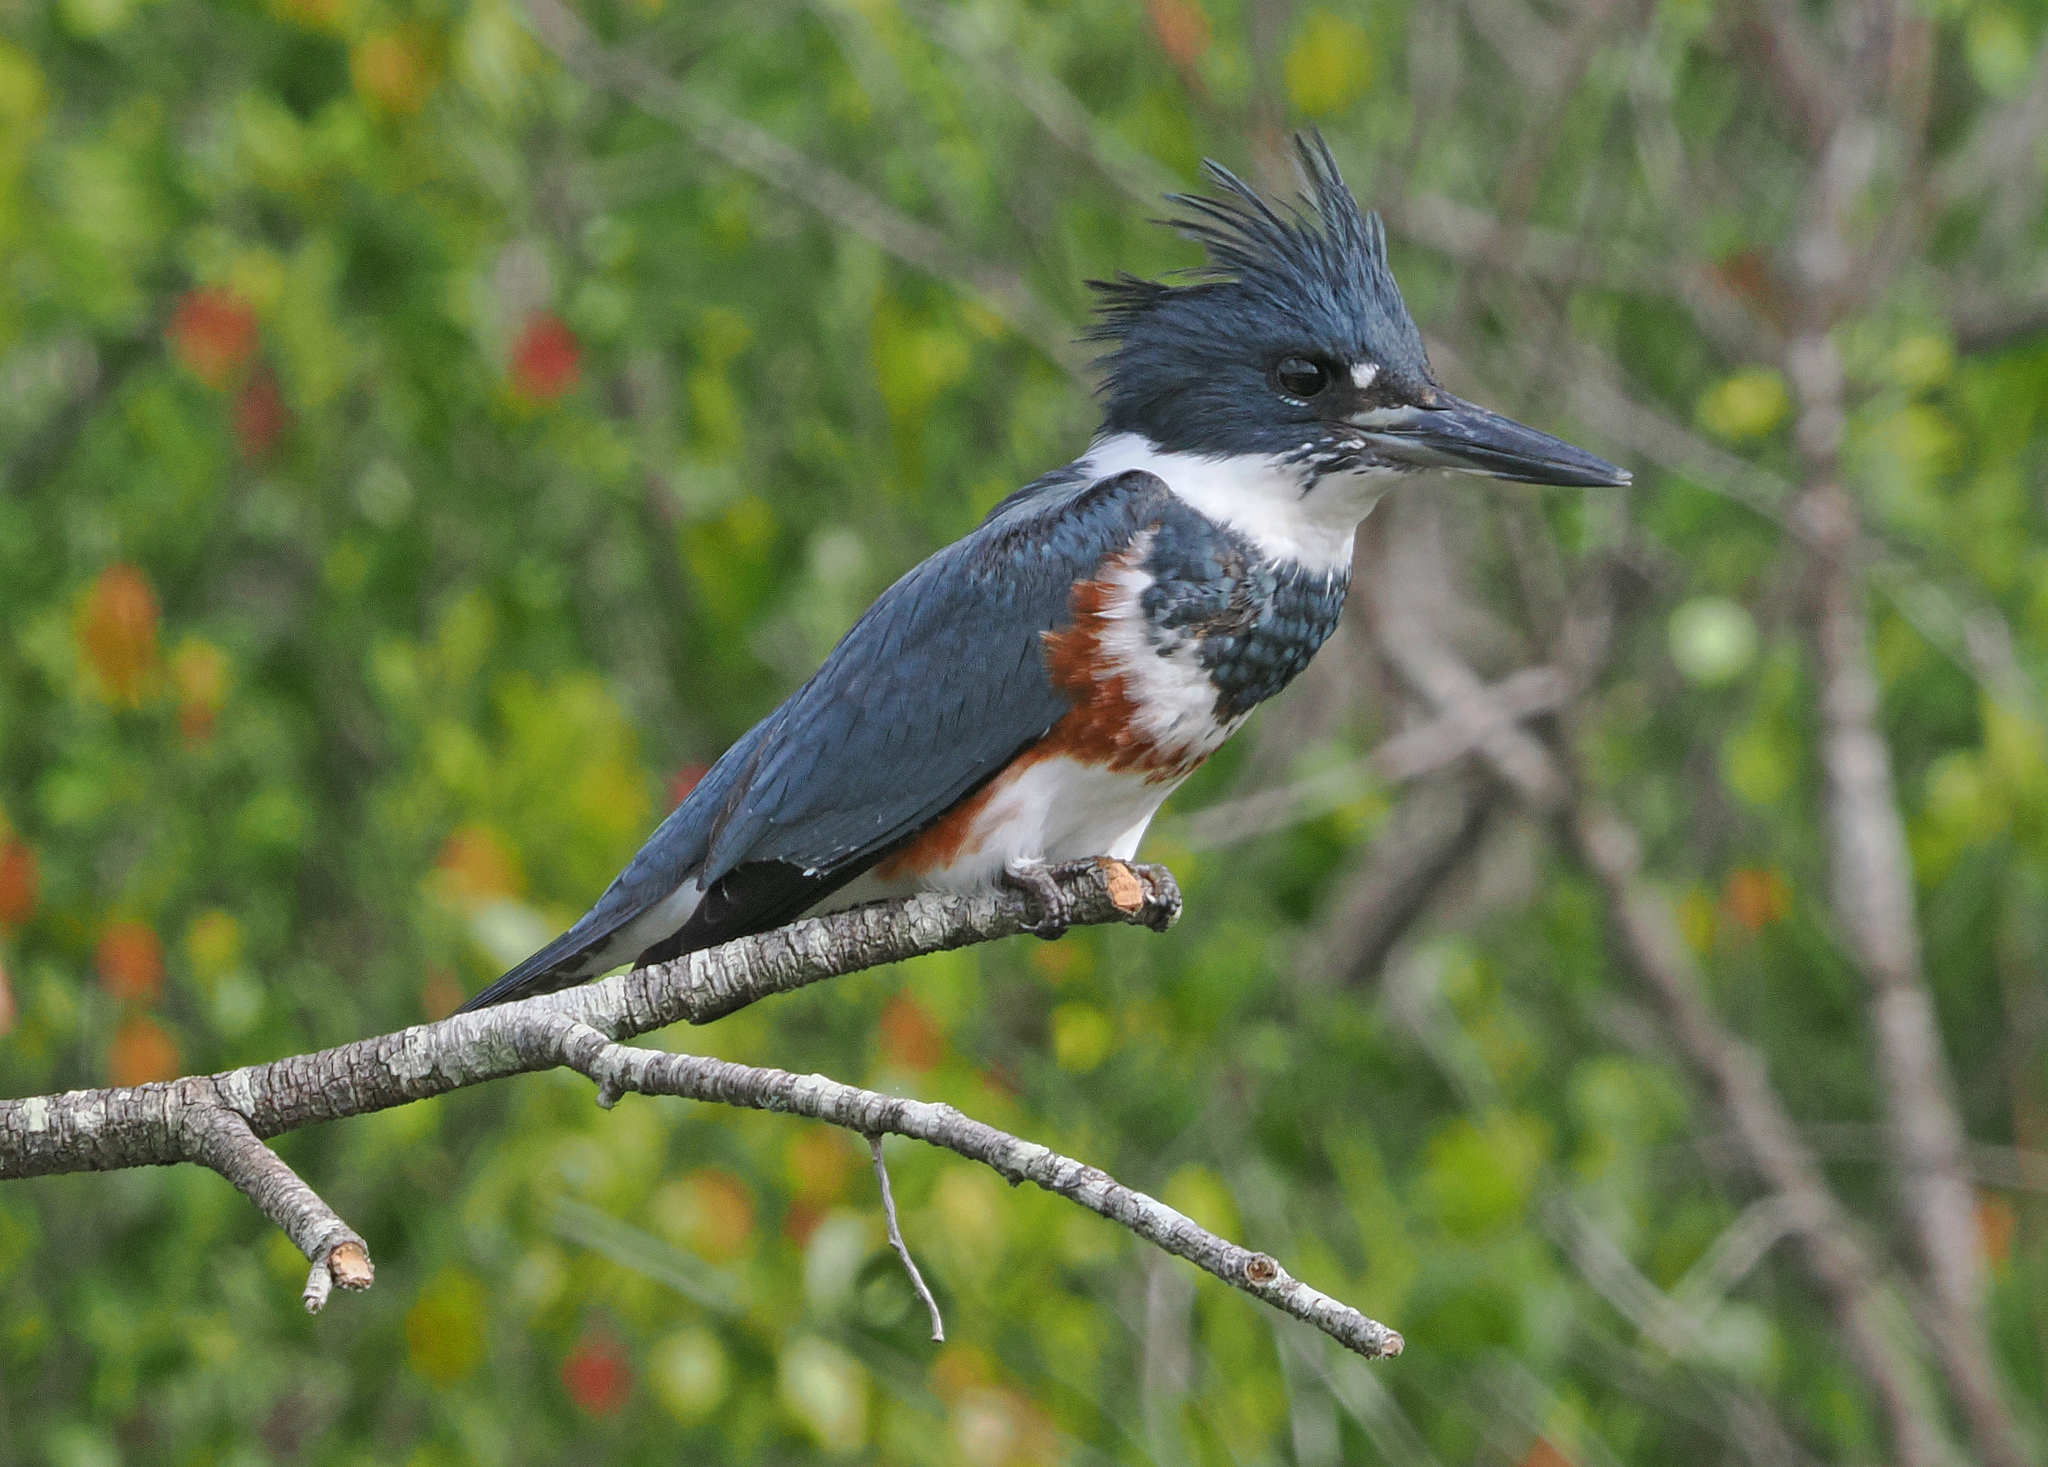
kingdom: Animalia
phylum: Chordata
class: Aves
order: Coraciiformes
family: Alcedinidae
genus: Megaceryle
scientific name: Megaceryle alcyon
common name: Belted kingfisher
